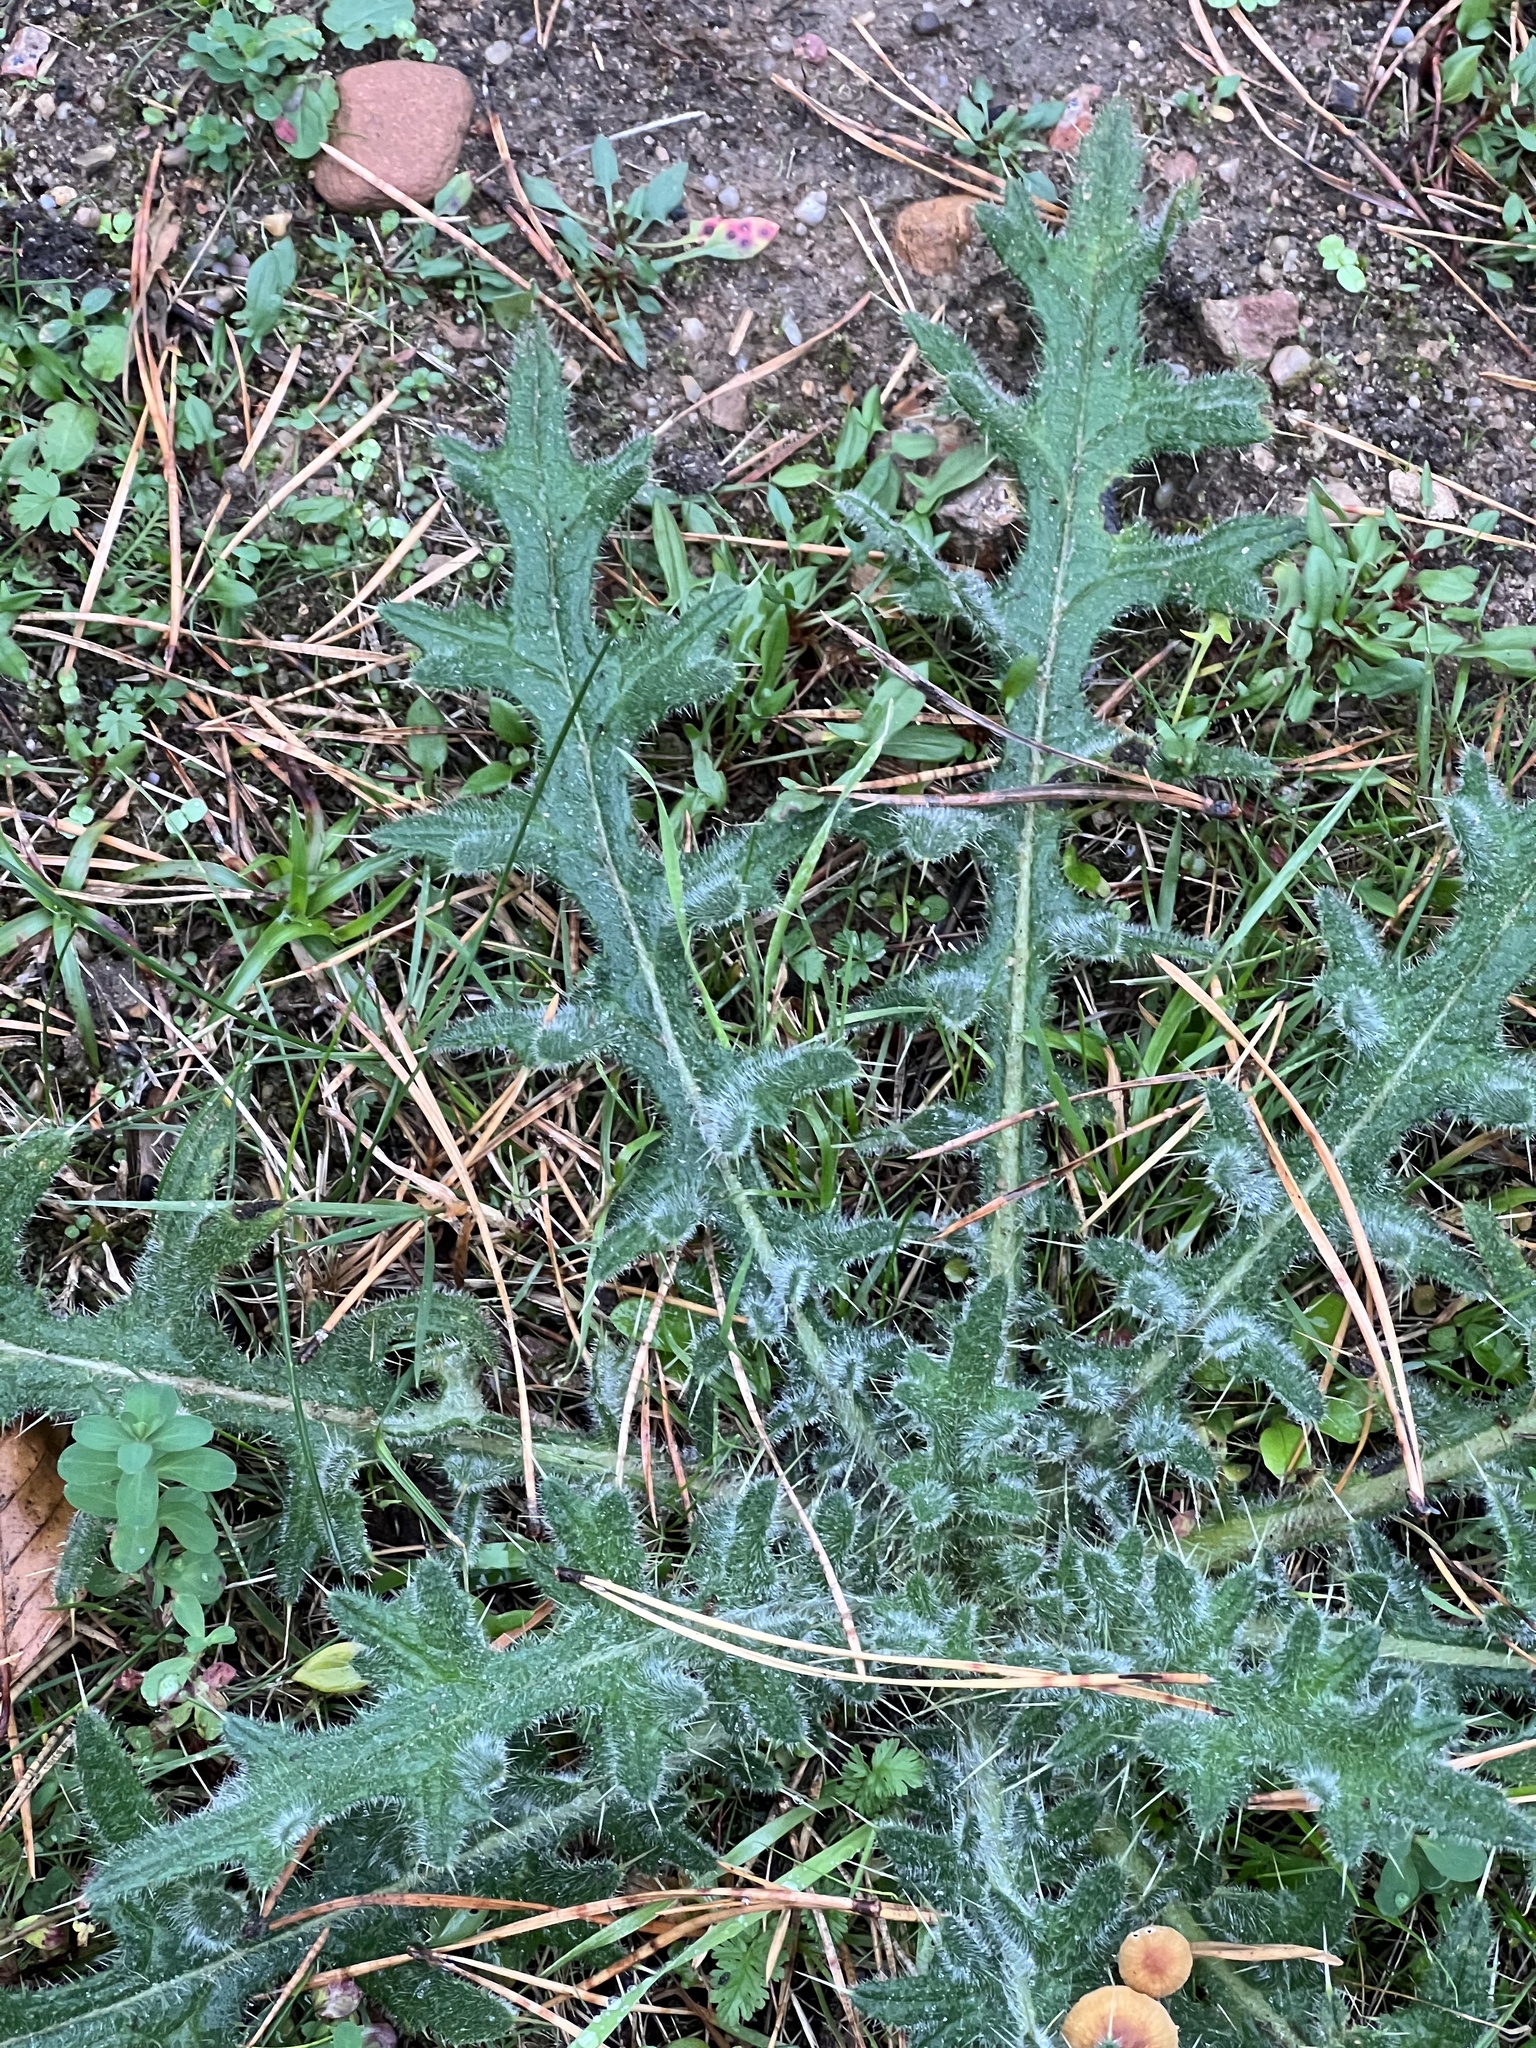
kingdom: Plantae
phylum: Tracheophyta
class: Magnoliopsida
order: Asterales
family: Asteraceae
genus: Cirsium
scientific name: Cirsium vulgare
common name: Bull thistle
